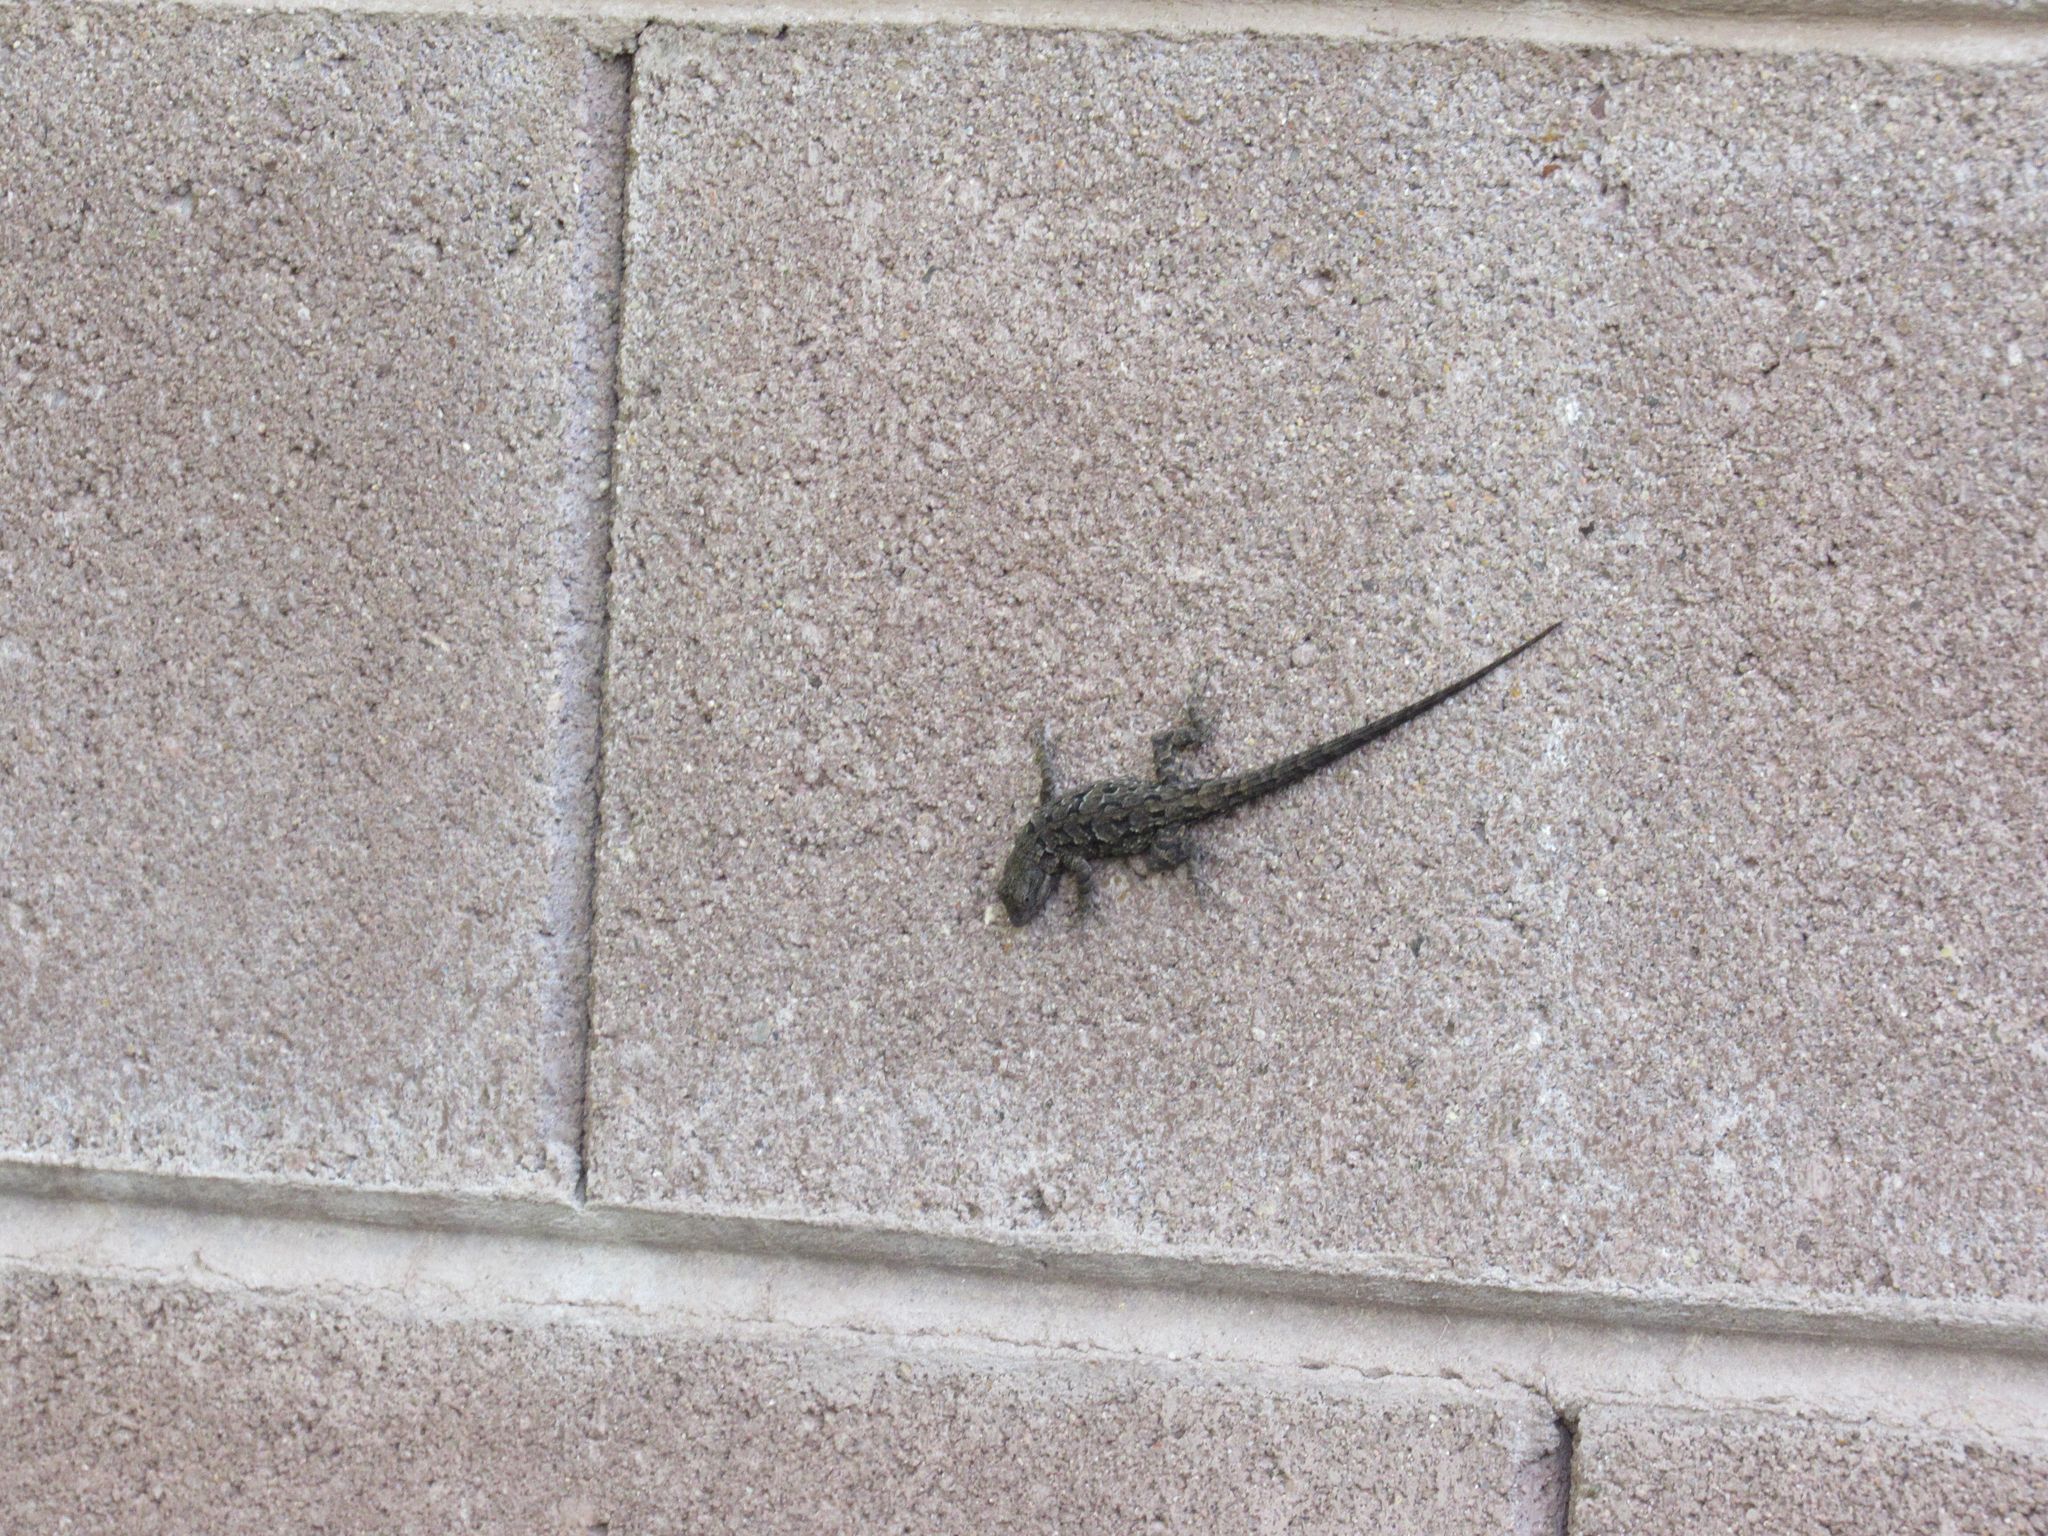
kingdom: Animalia
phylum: Chordata
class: Squamata
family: Phrynosomatidae
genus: Urosaurus
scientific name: Urosaurus ornatus
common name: Ornate tree lizard
